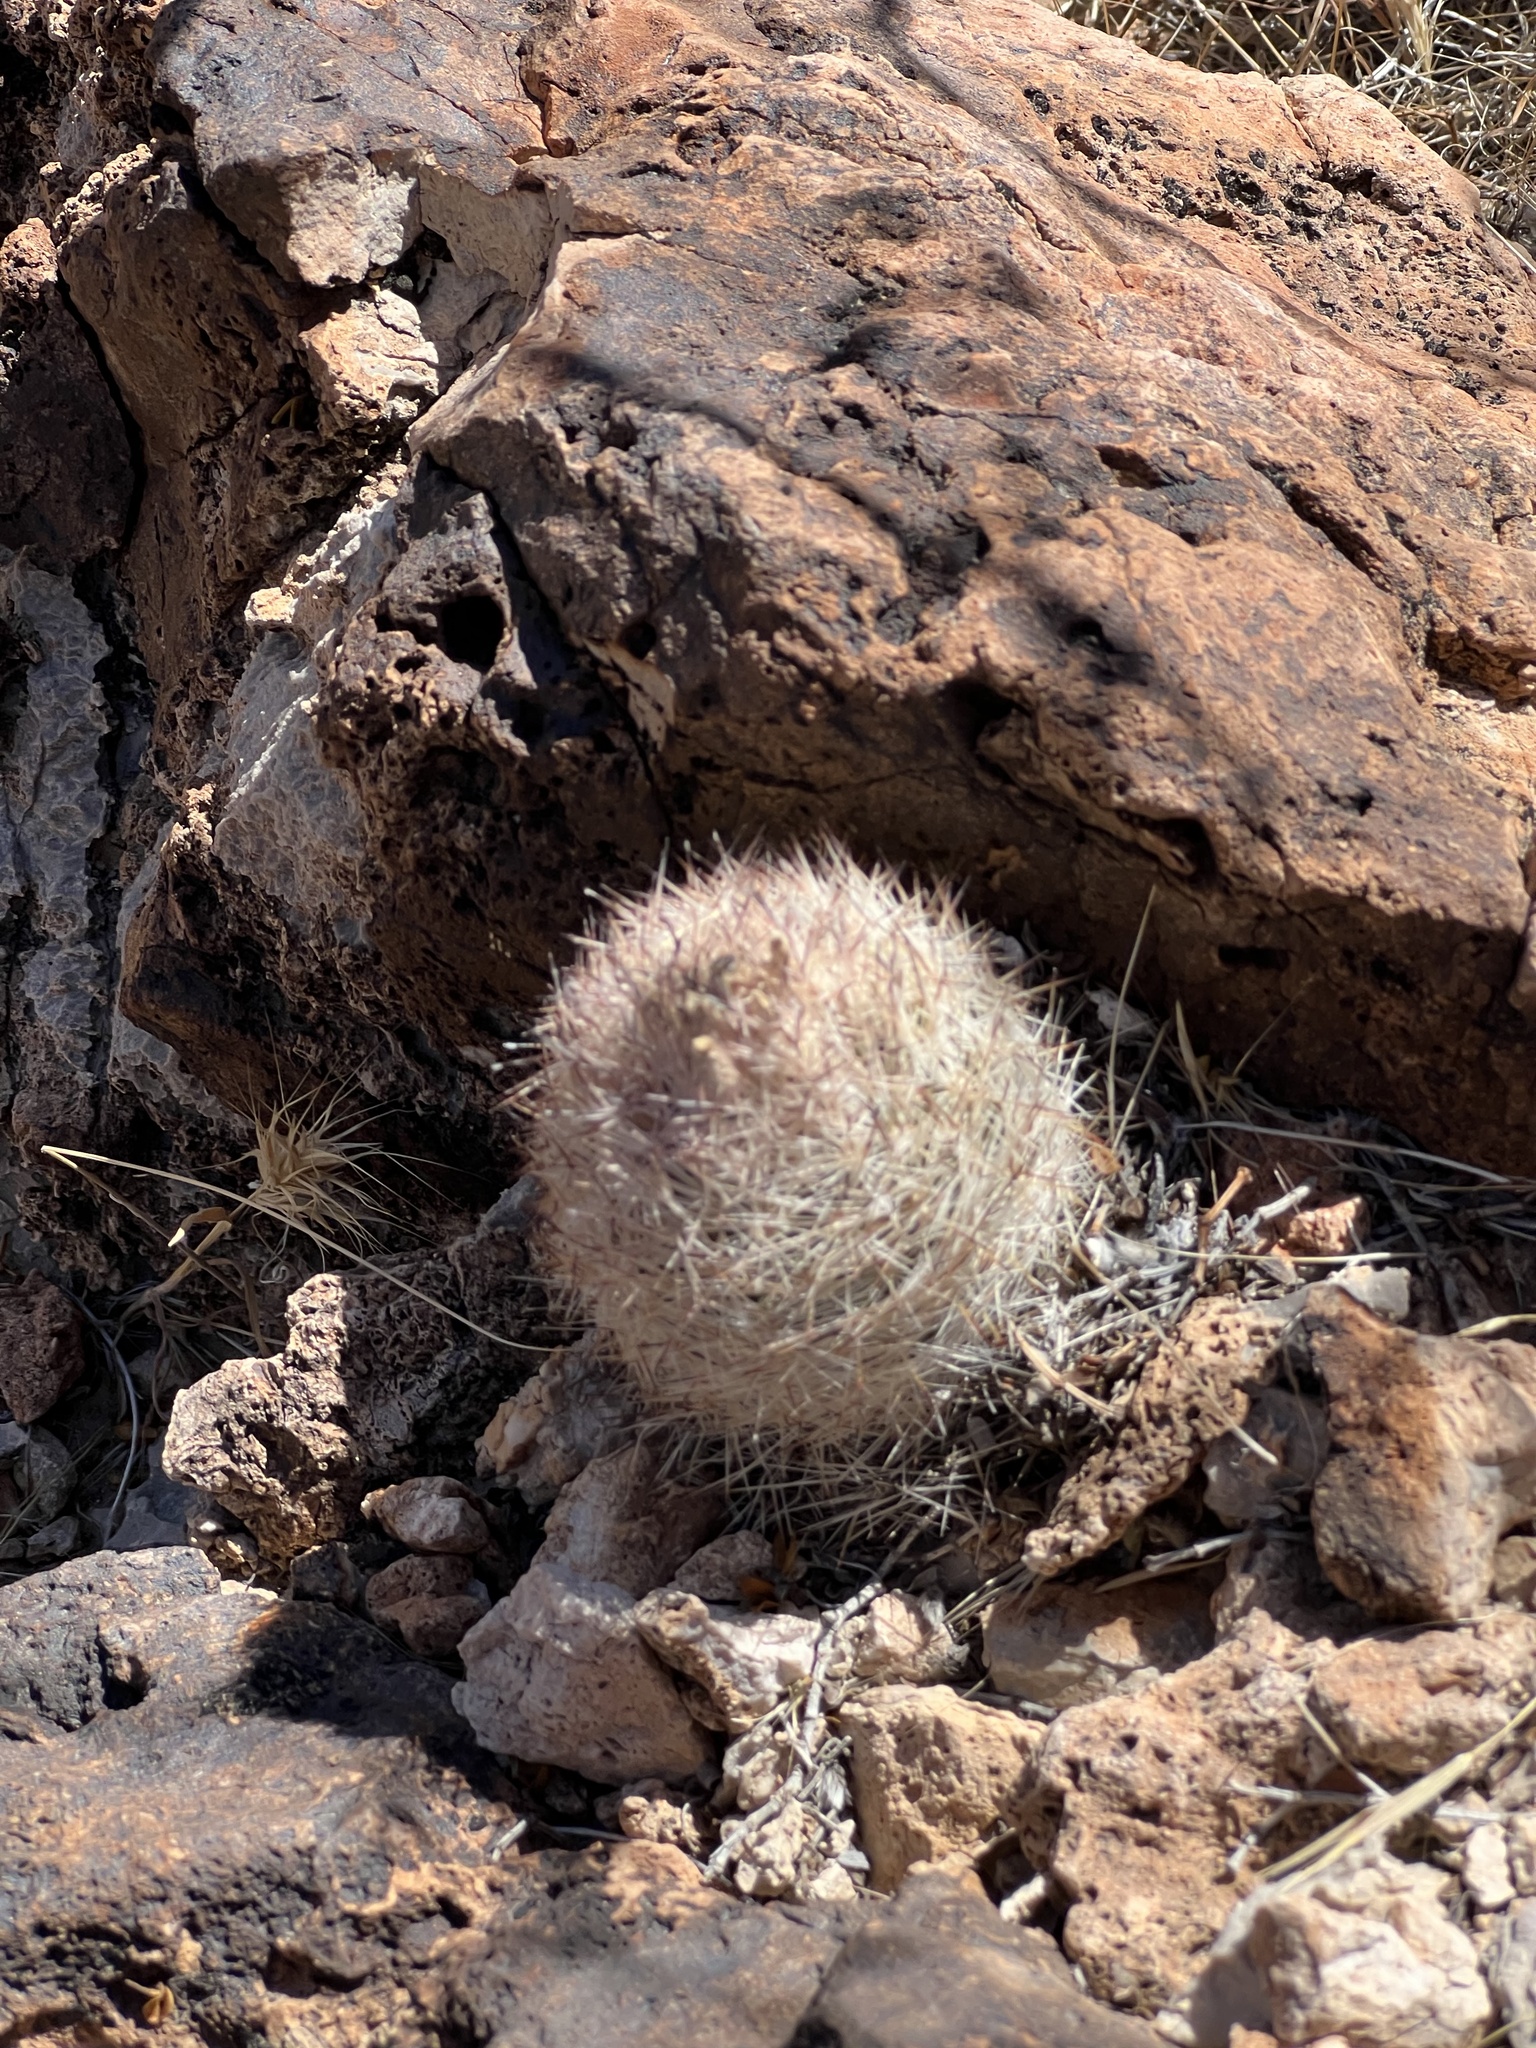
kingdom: Plantae
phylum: Tracheophyta
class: Magnoliopsida
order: Caryophyllales
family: Cactaceae
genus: Pelecyphora
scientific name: Pelecyphora dasyacantha
